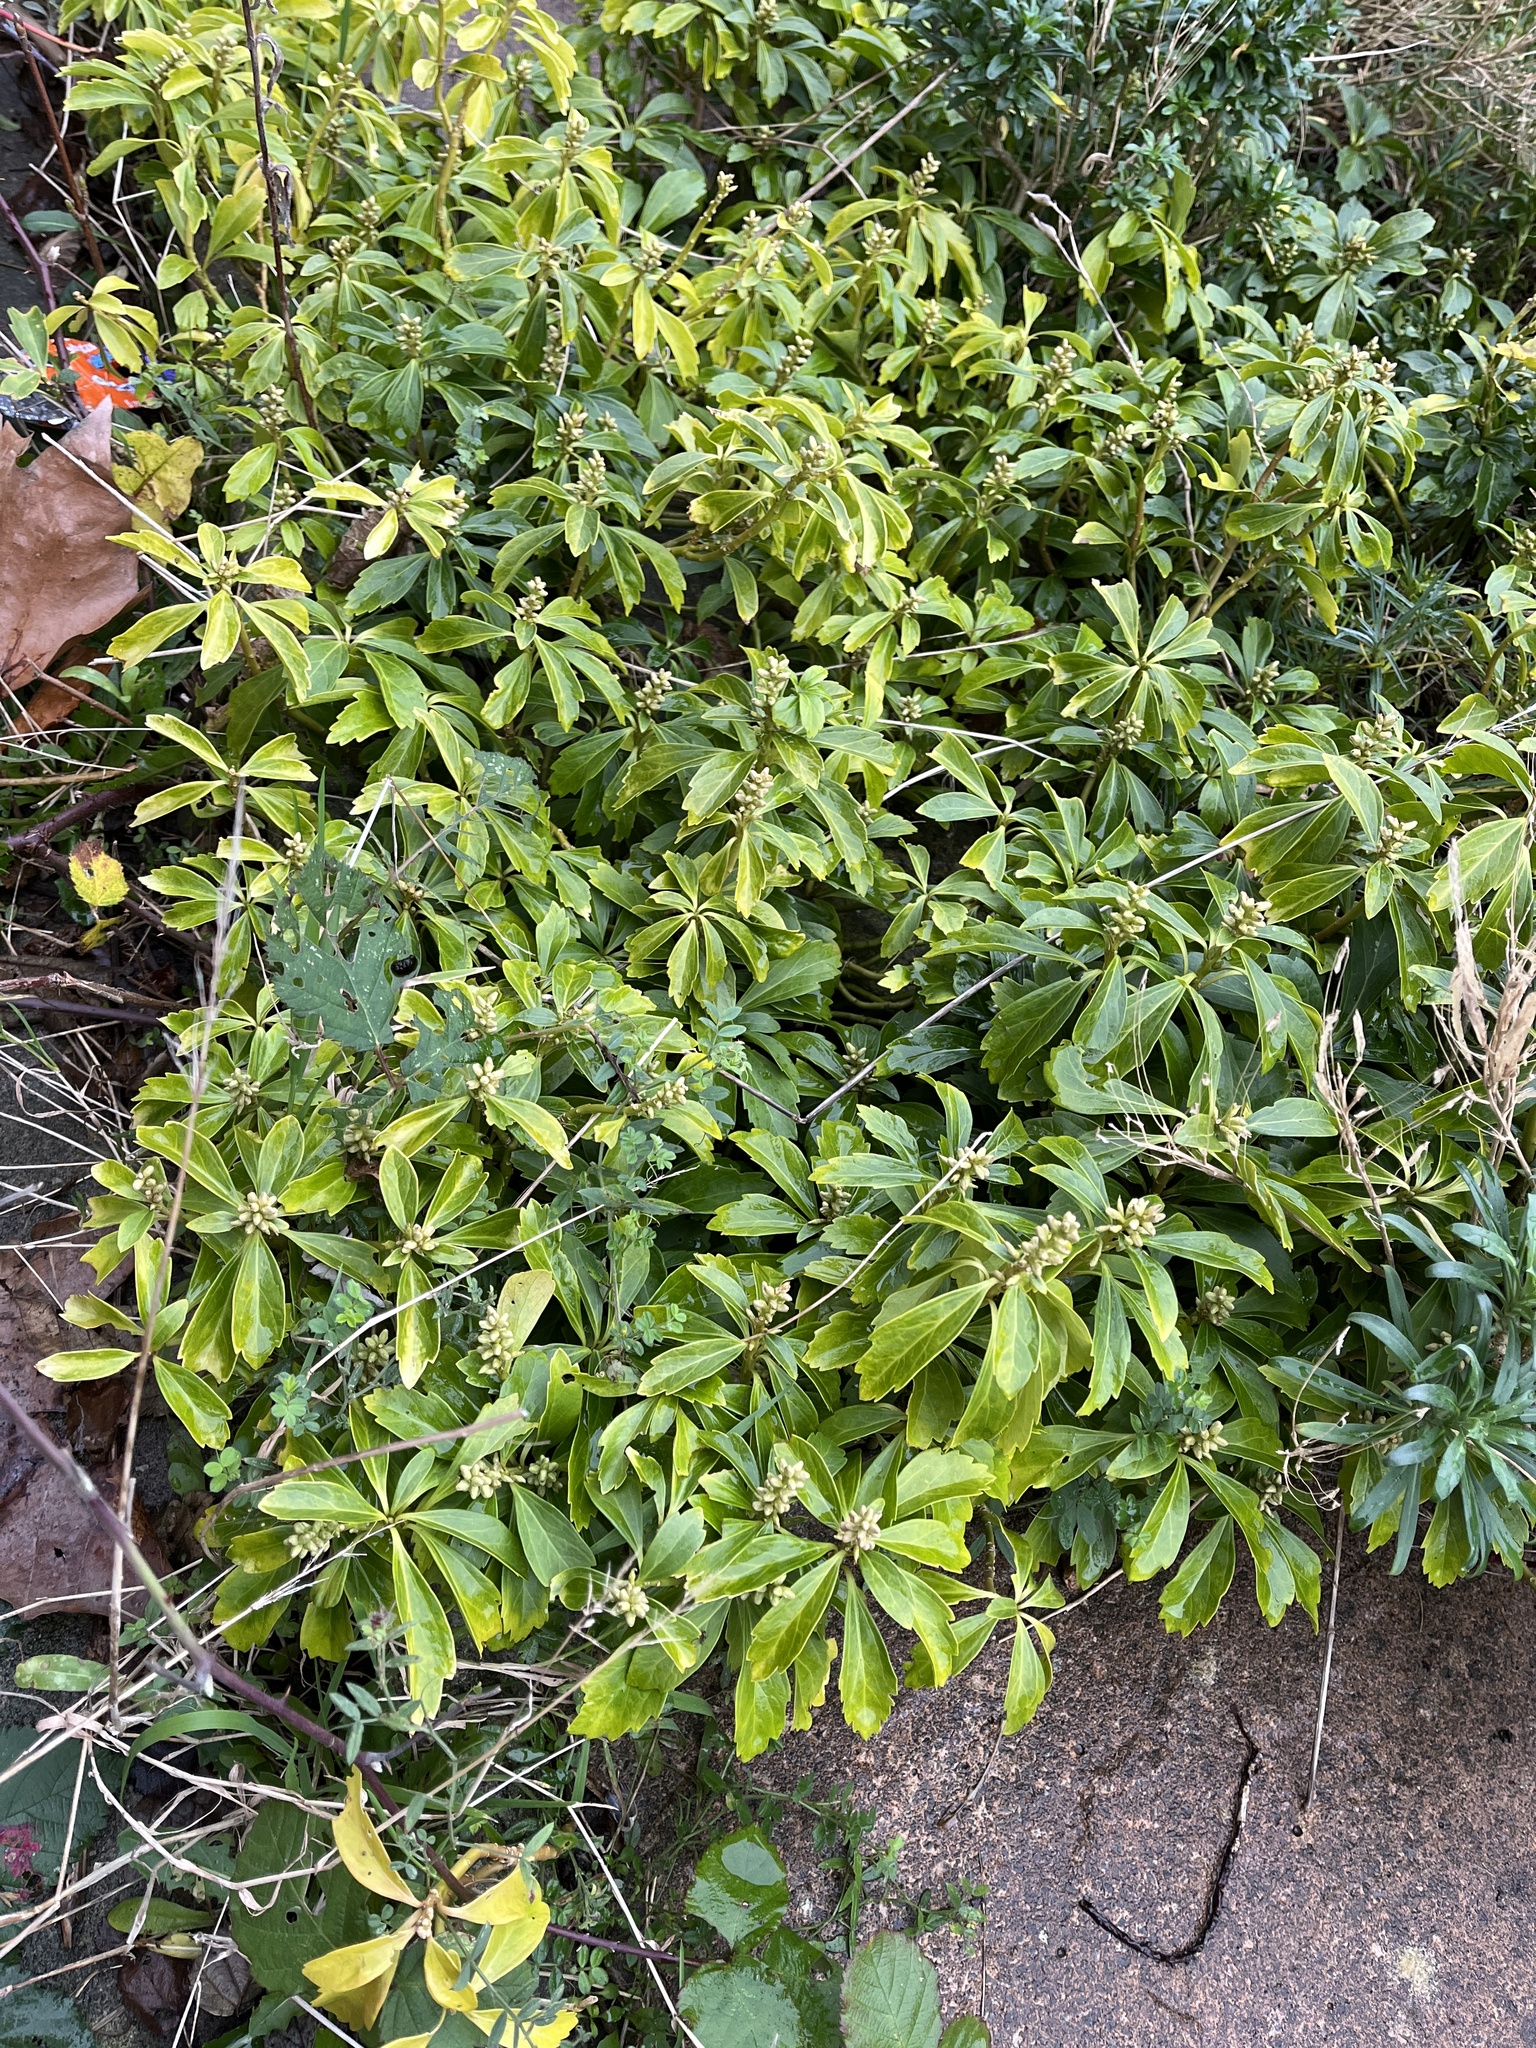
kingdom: Plantae
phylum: Tracheophyta
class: Magnoliopsida
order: Buxales
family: Buxaceae
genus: Pachysandra
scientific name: Pachysandra terminalis
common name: Japanese pachysandra
